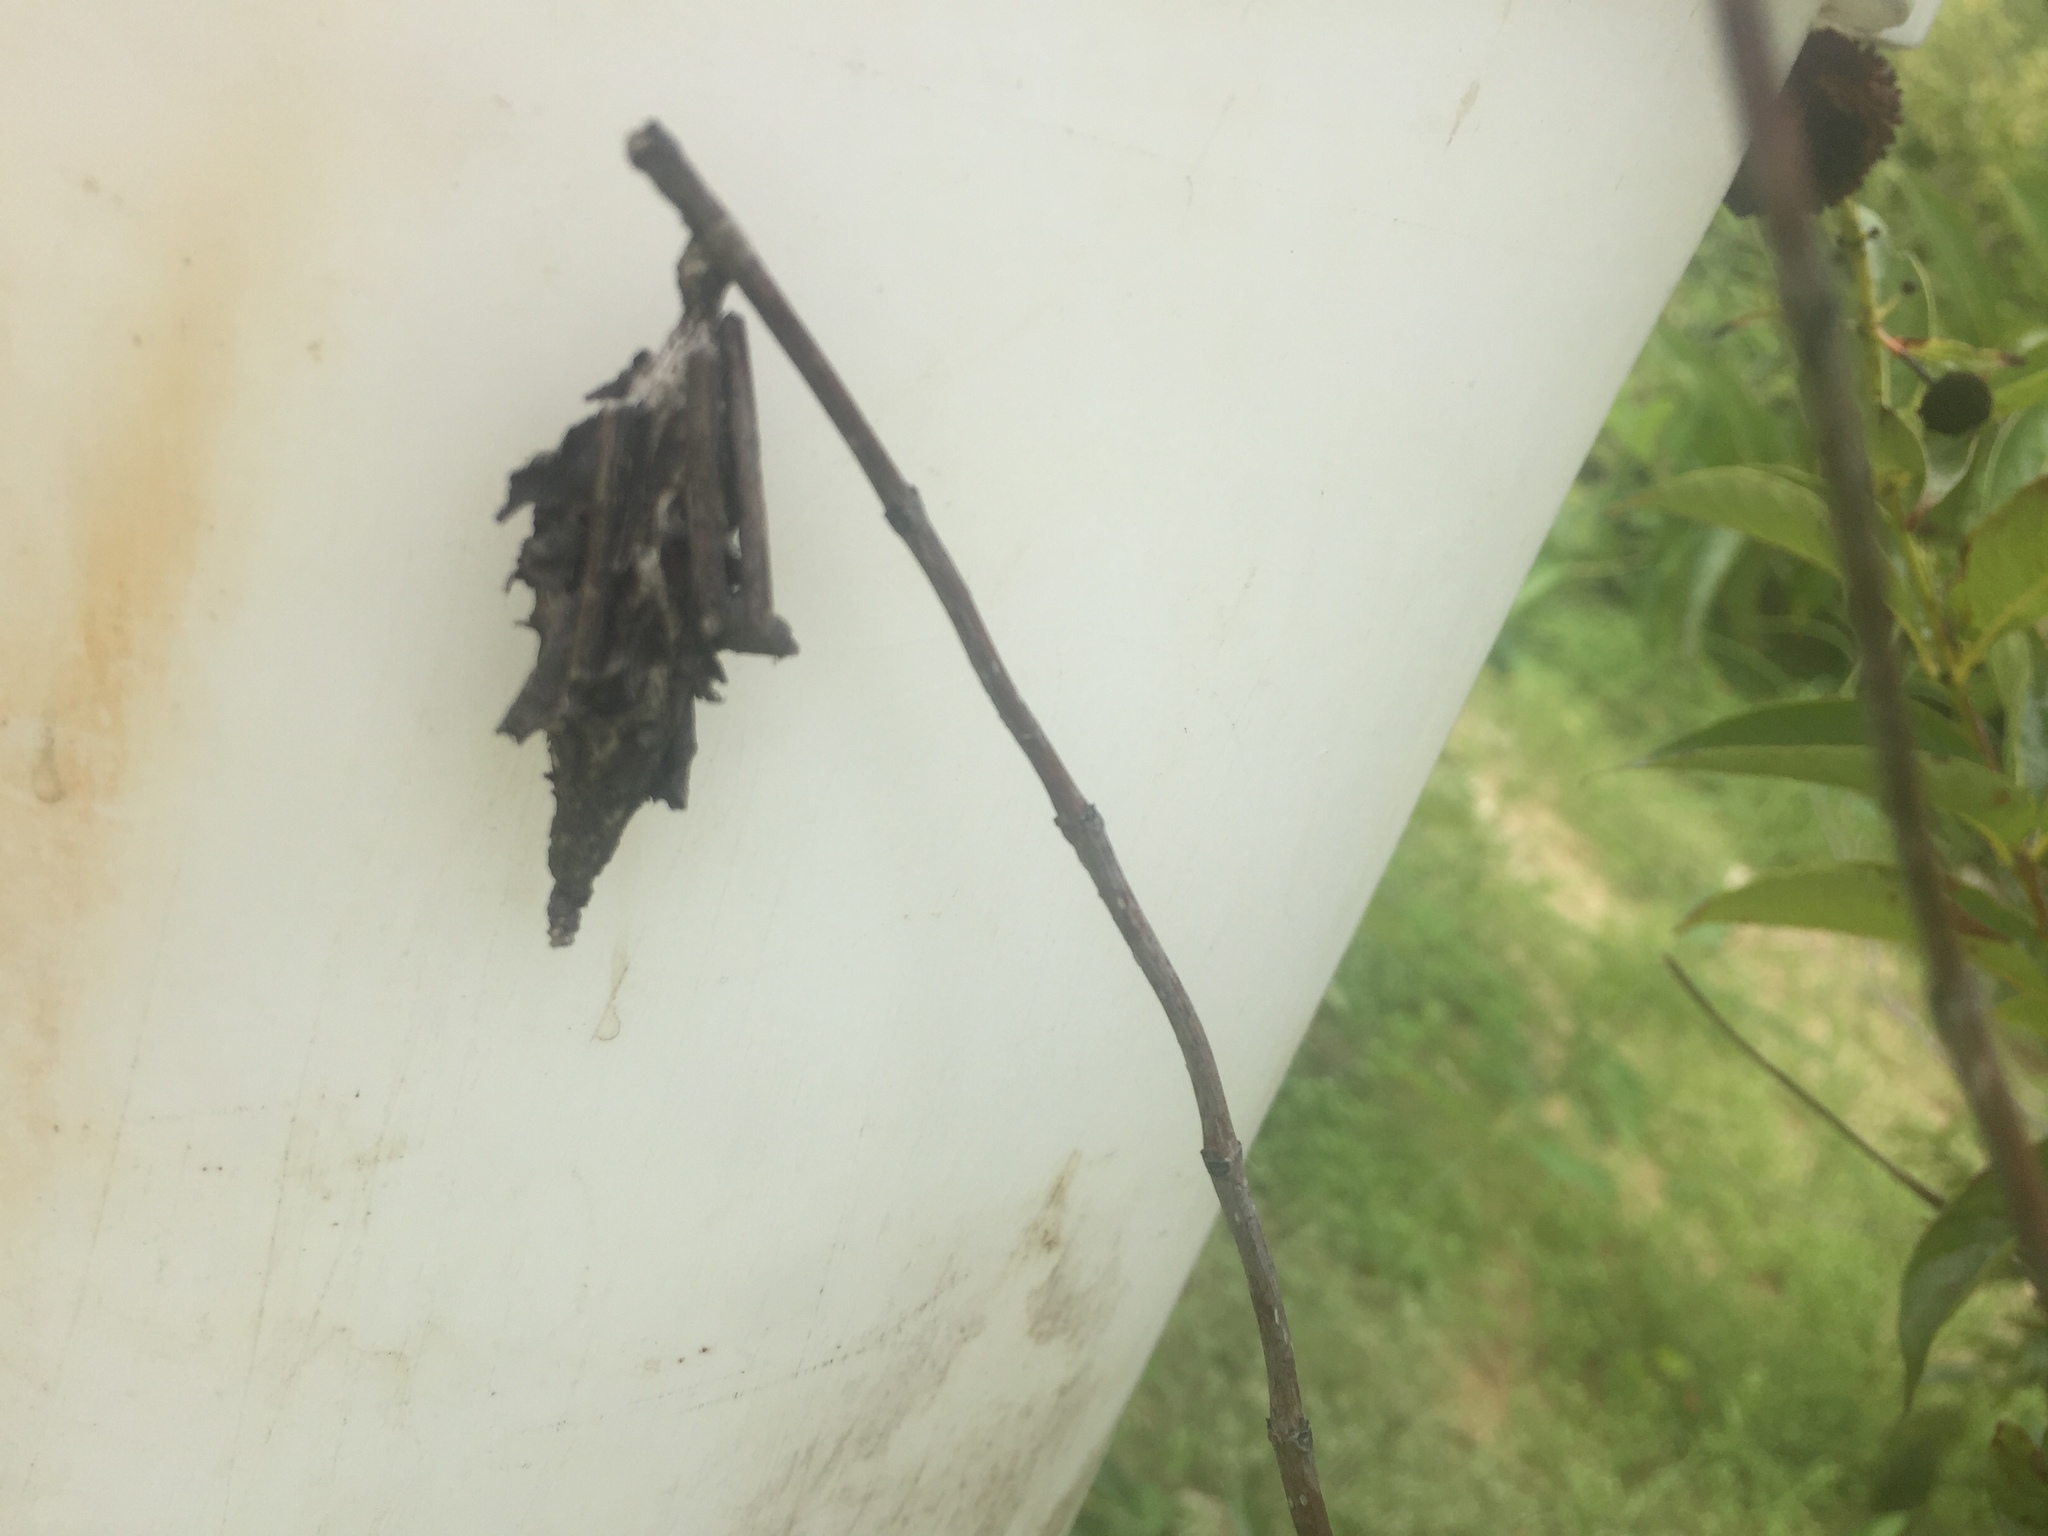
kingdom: Animalia
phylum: Arthropoda
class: Insecta
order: Lepidoptera
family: Psychidae
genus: Thyridopteryx
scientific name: Thyridopteryx ephemeraeformis
